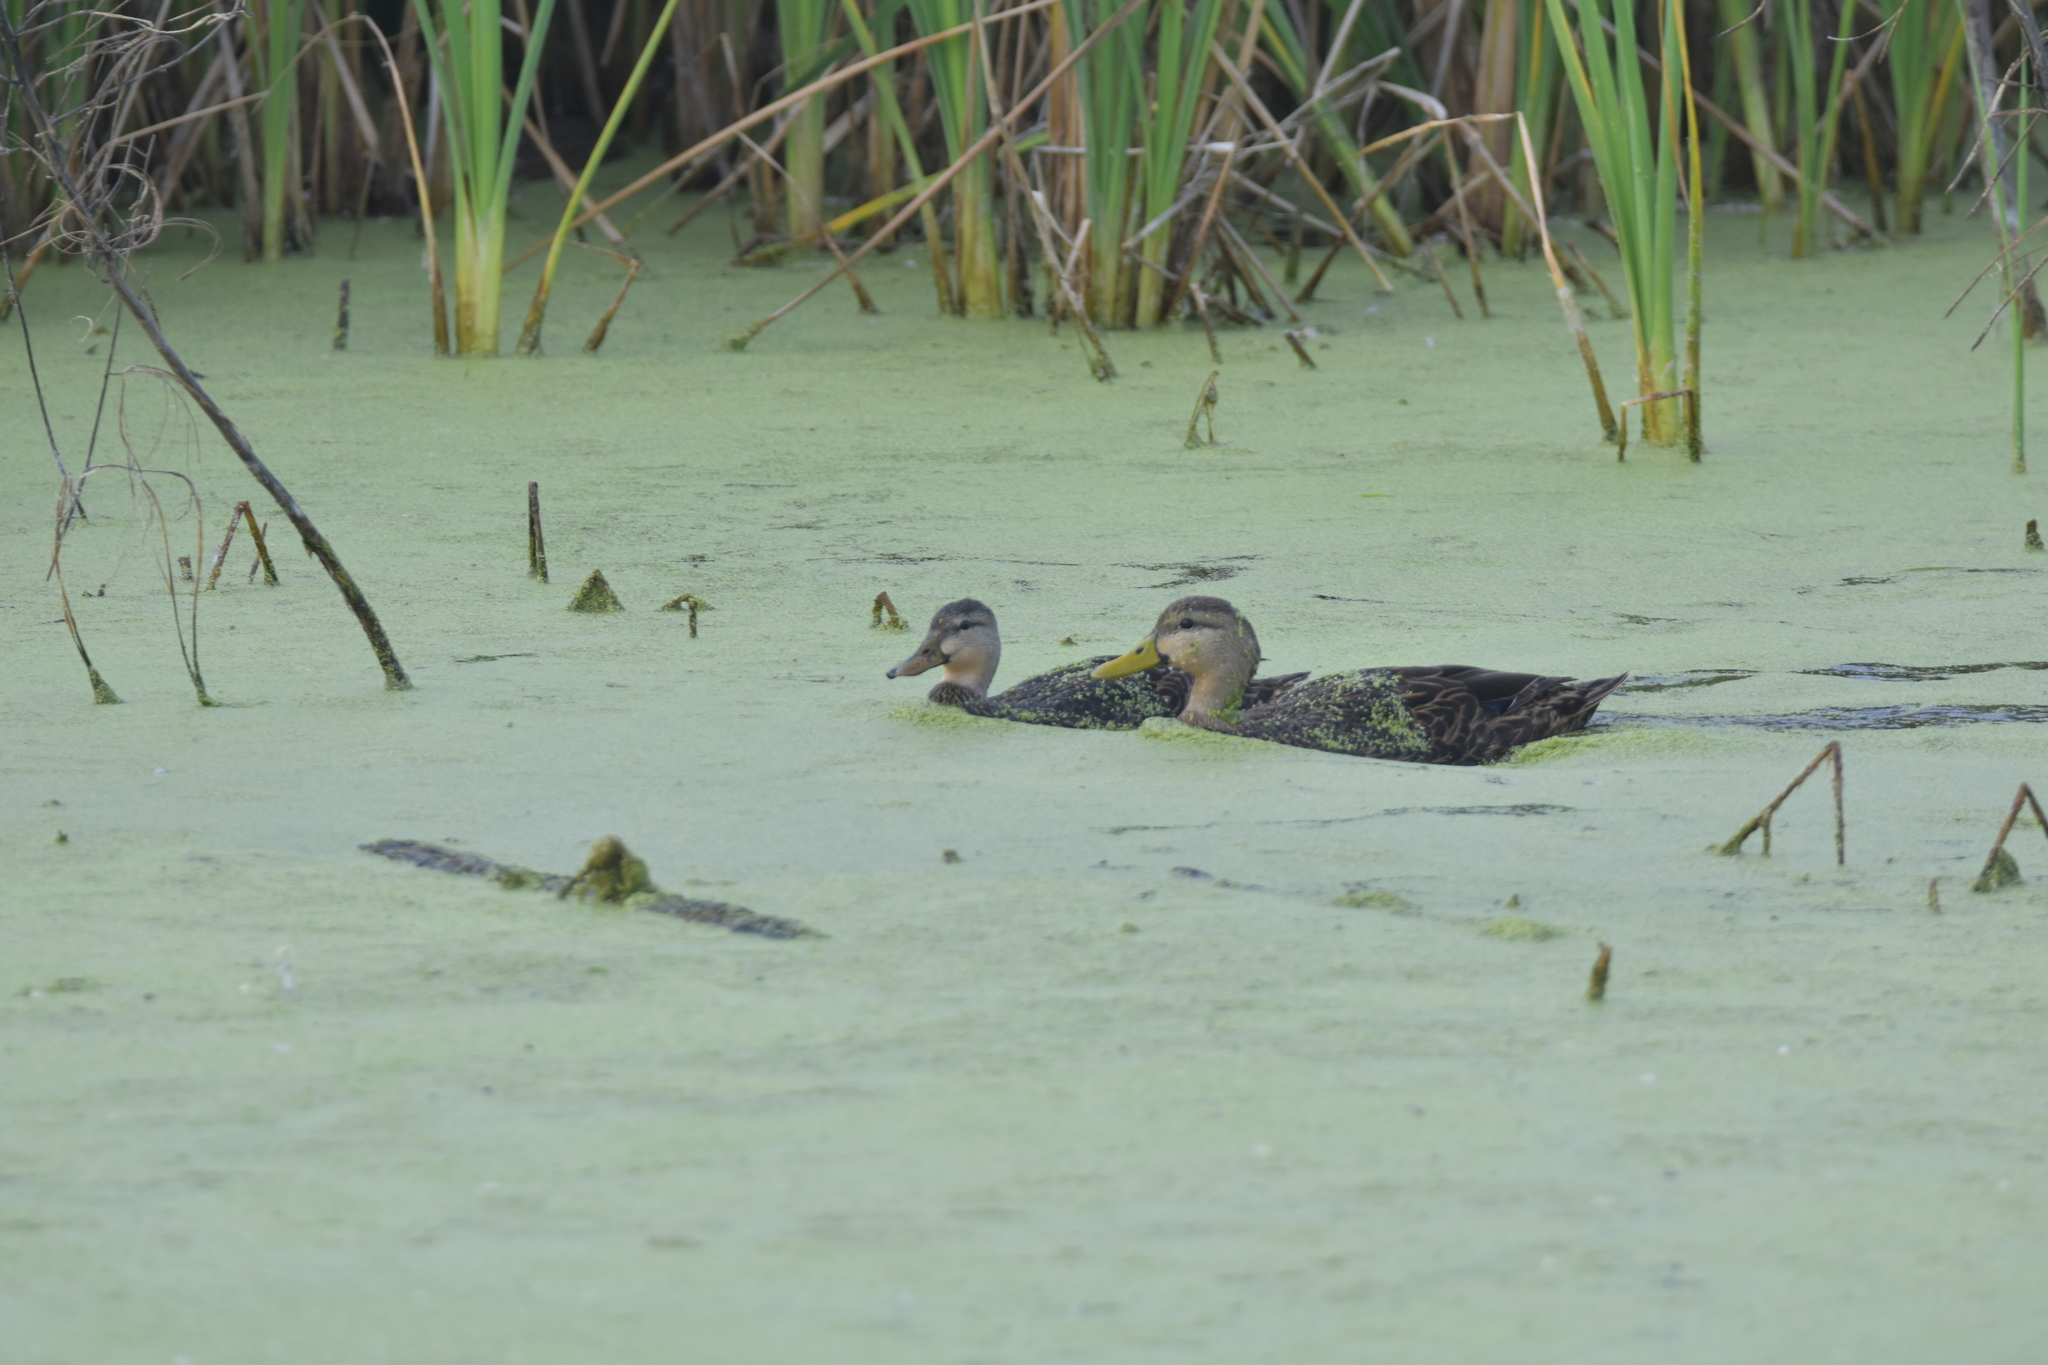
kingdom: Animalia
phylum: Chordata
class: Aves
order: Anseriformes
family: Anatidae
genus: Anas
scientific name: Anas fulvigula
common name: Mottled duck
